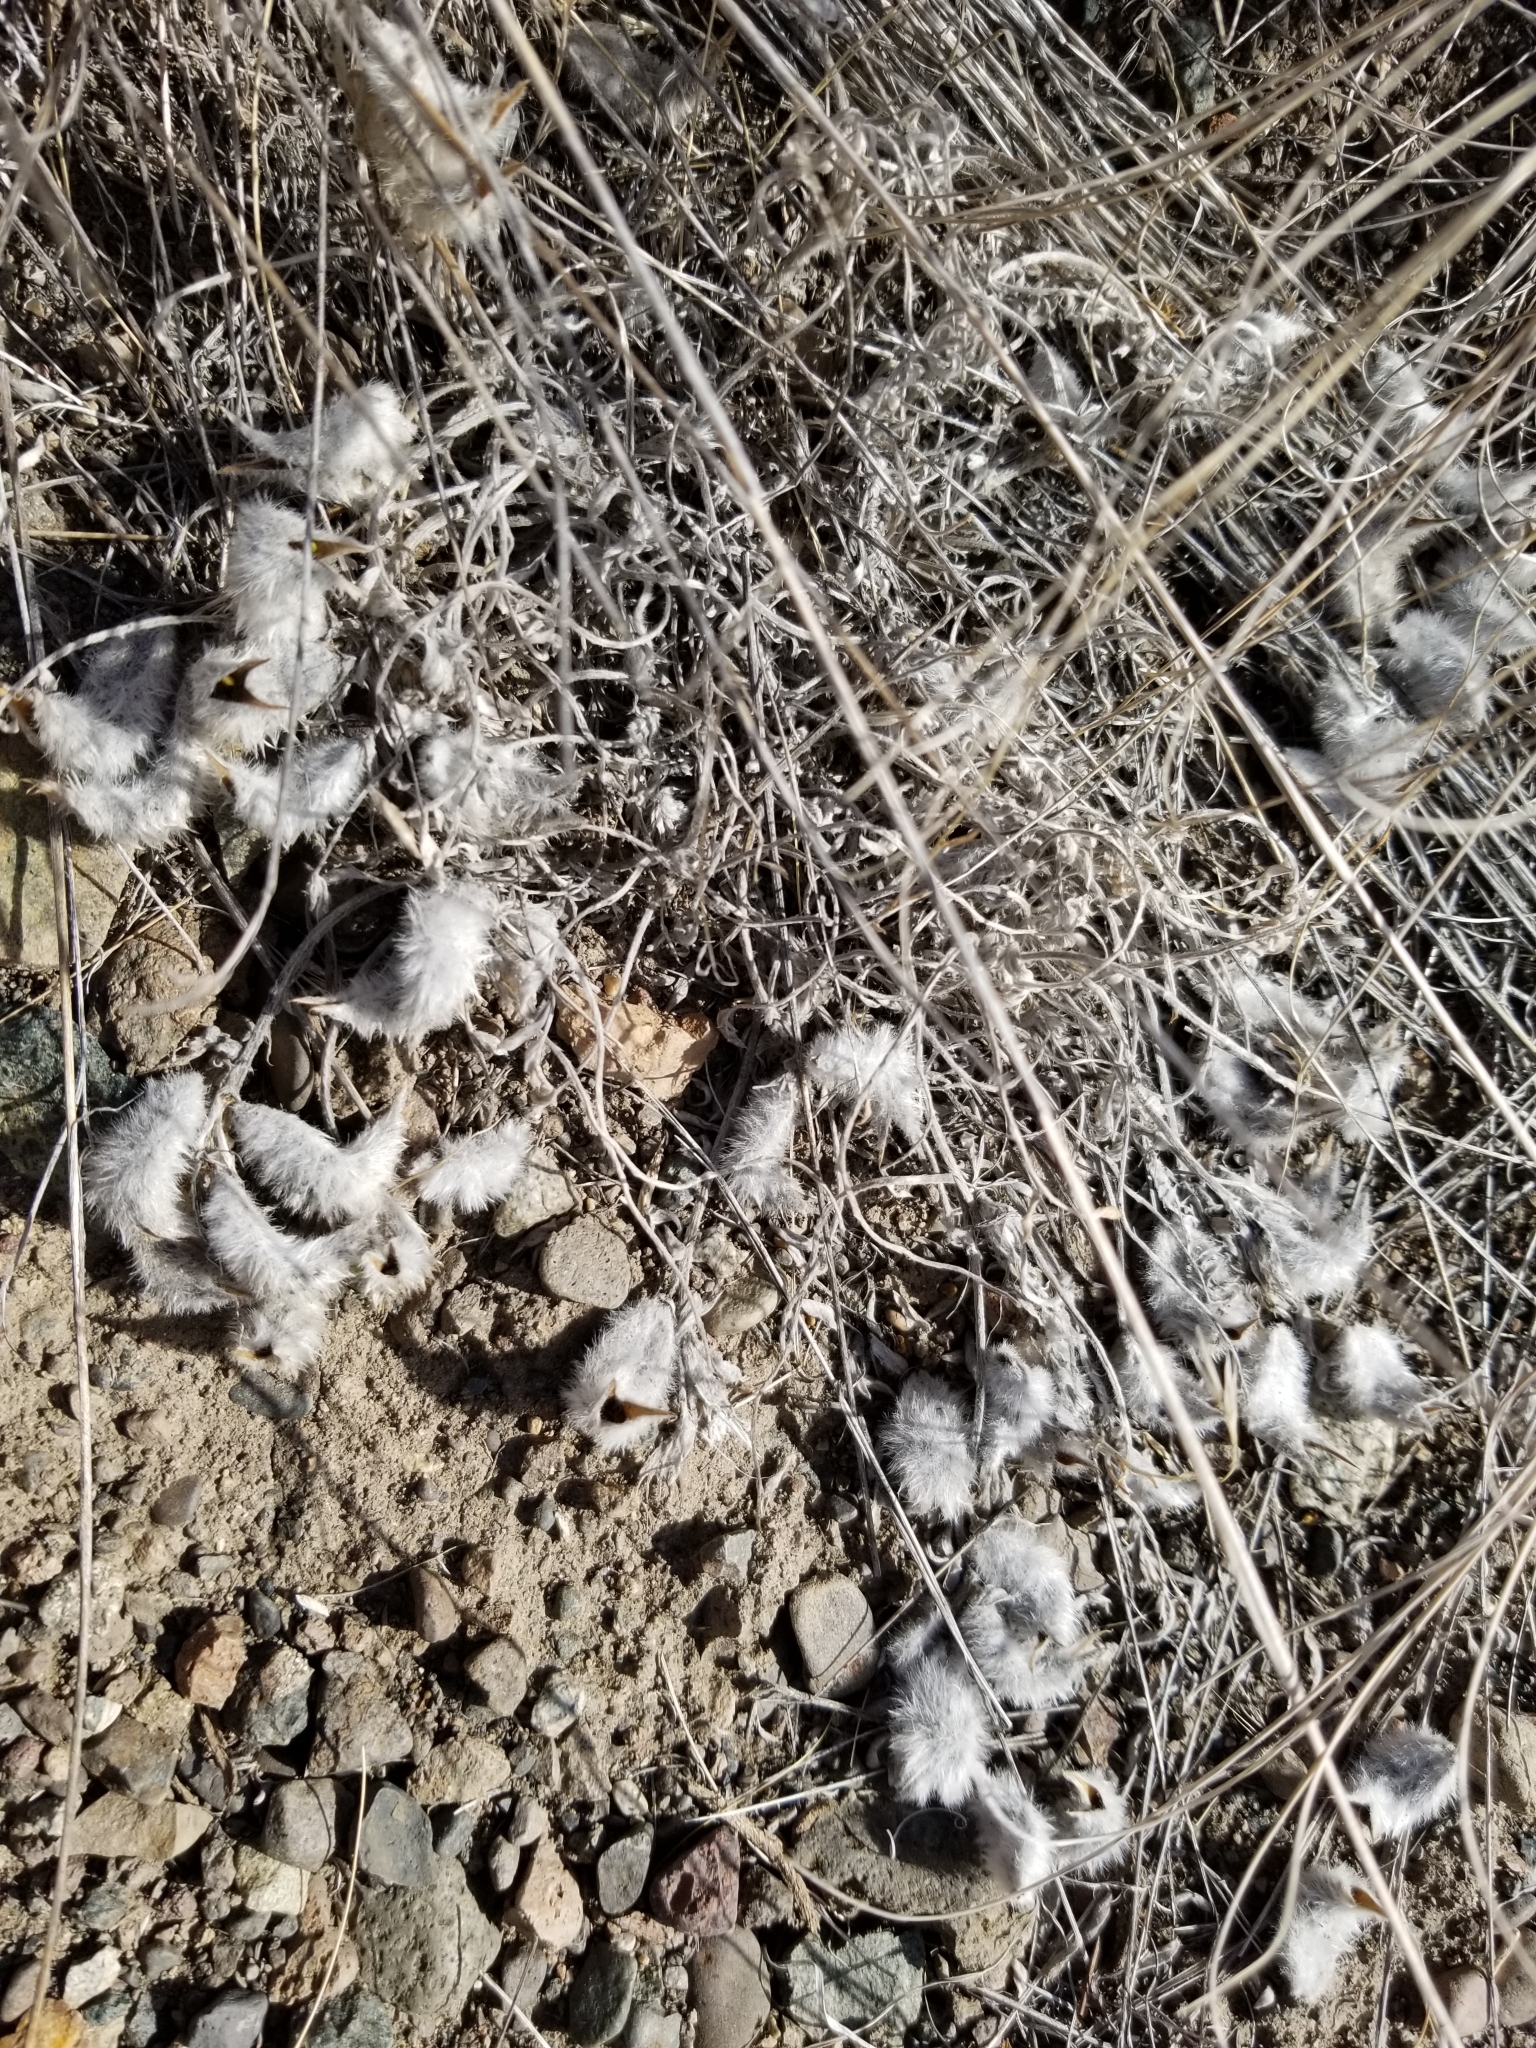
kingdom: Plantae
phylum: Tracheophyta
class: Magnoliopsida
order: Fabales
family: Fabaceae
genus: Astragalus
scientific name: Astragalus purshii
